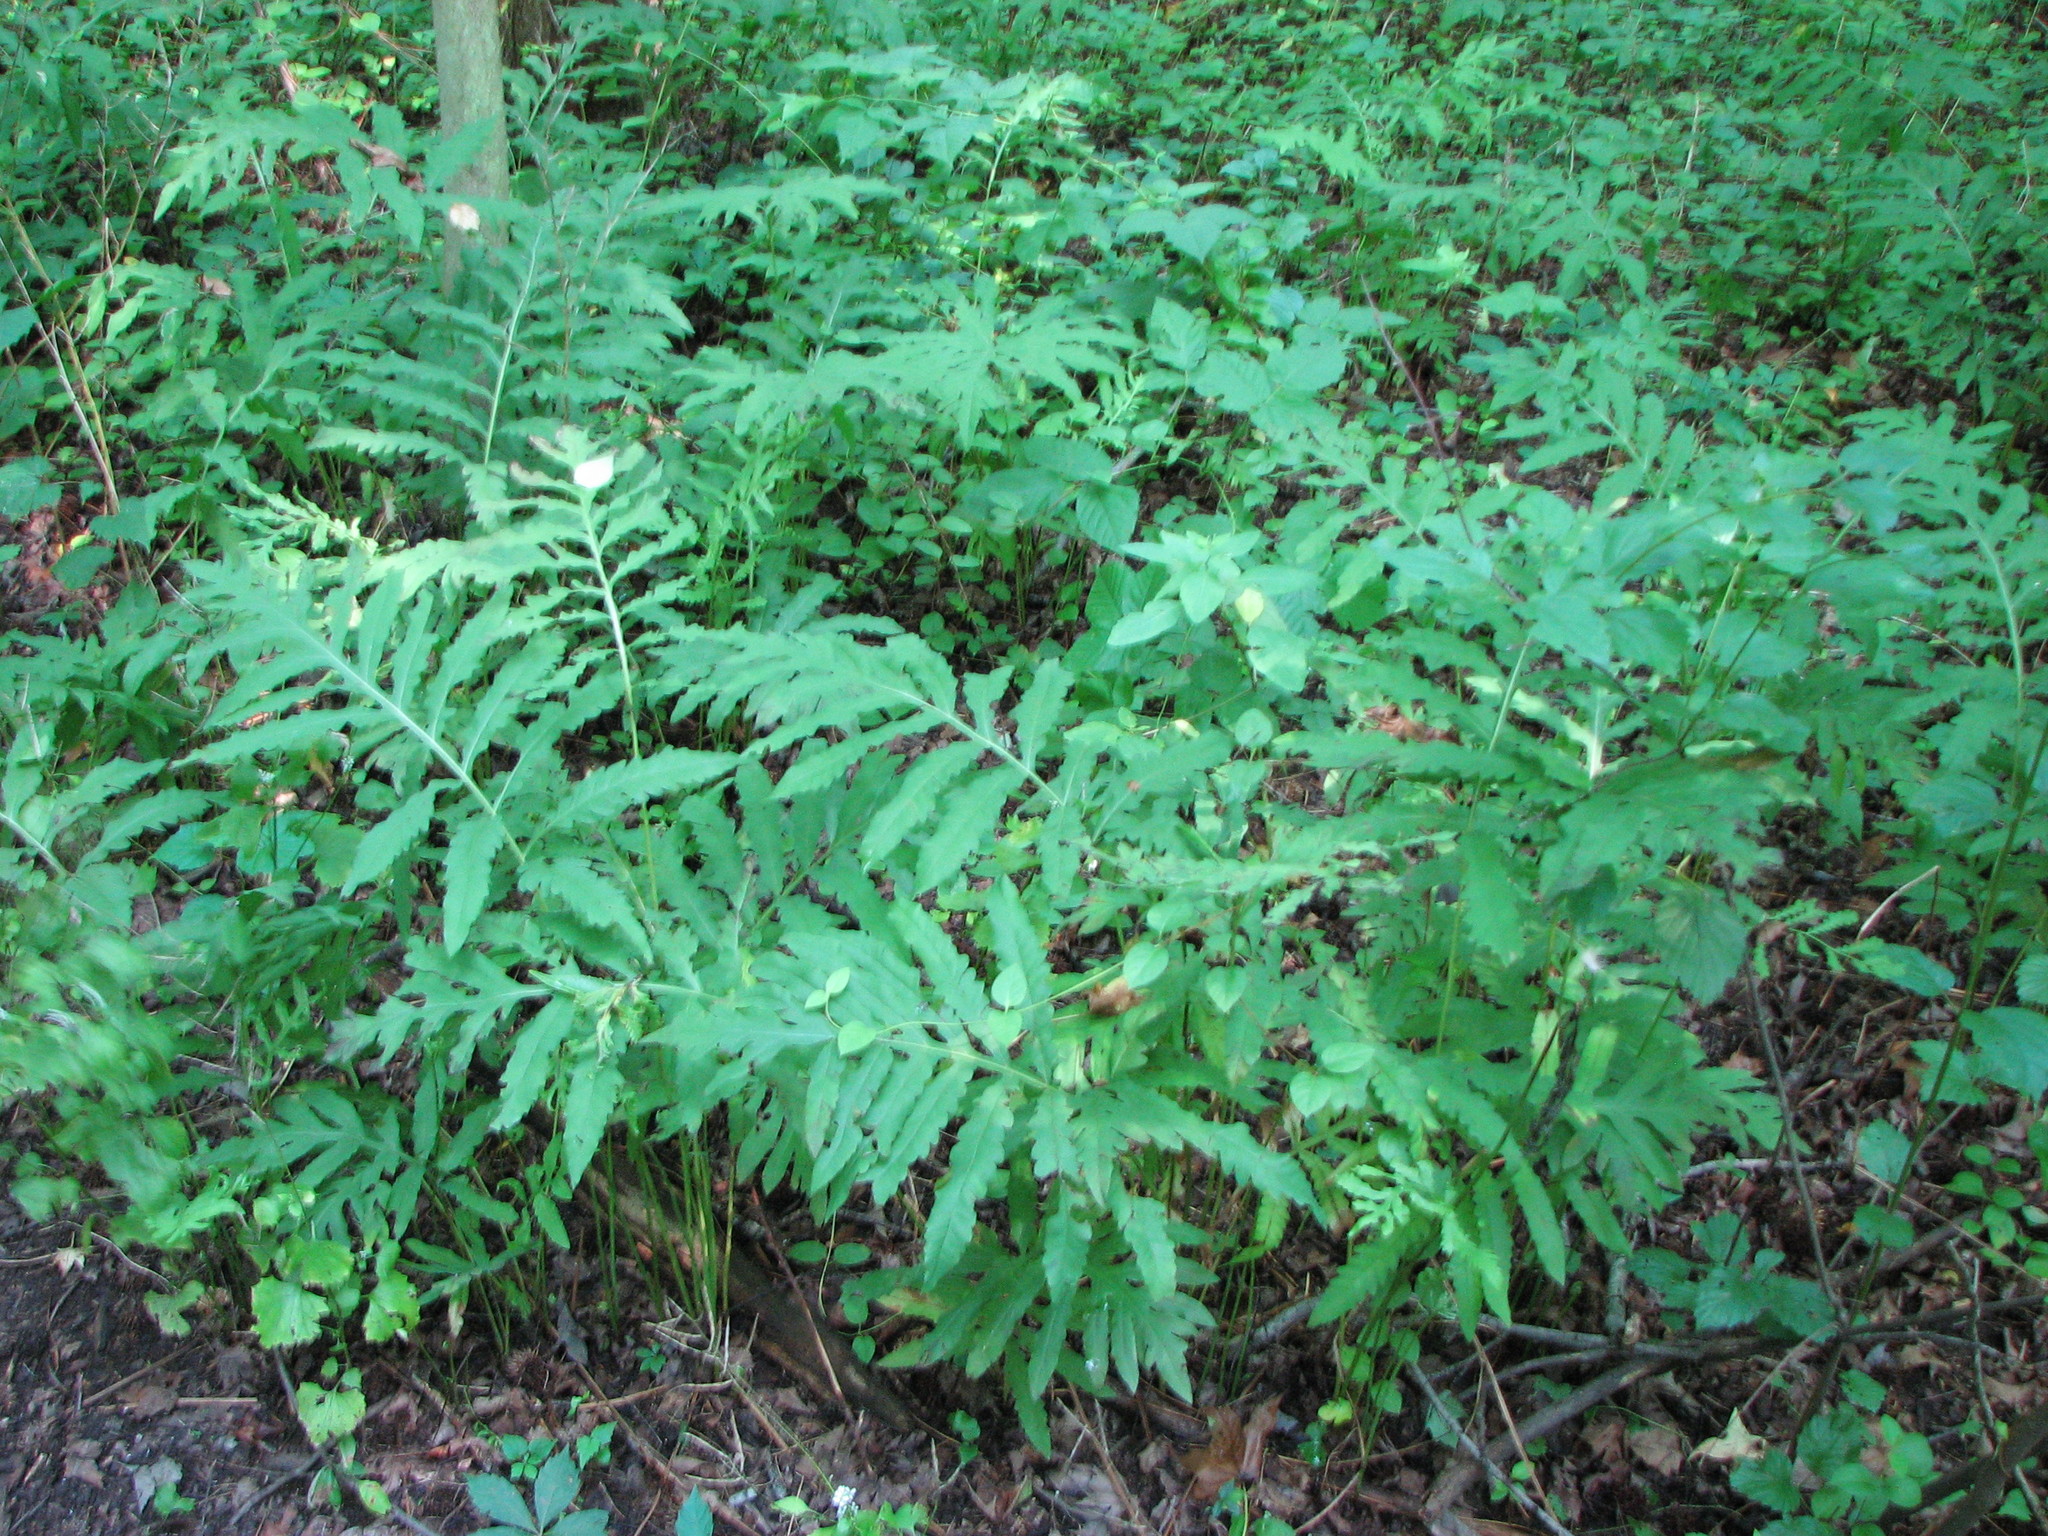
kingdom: Plantae
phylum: Tracheophyta
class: Polypodiopsida
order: Polypodiales
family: Onocleaceae
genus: Onoclea
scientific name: Onoclea sensibilis
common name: Sensitive fern
